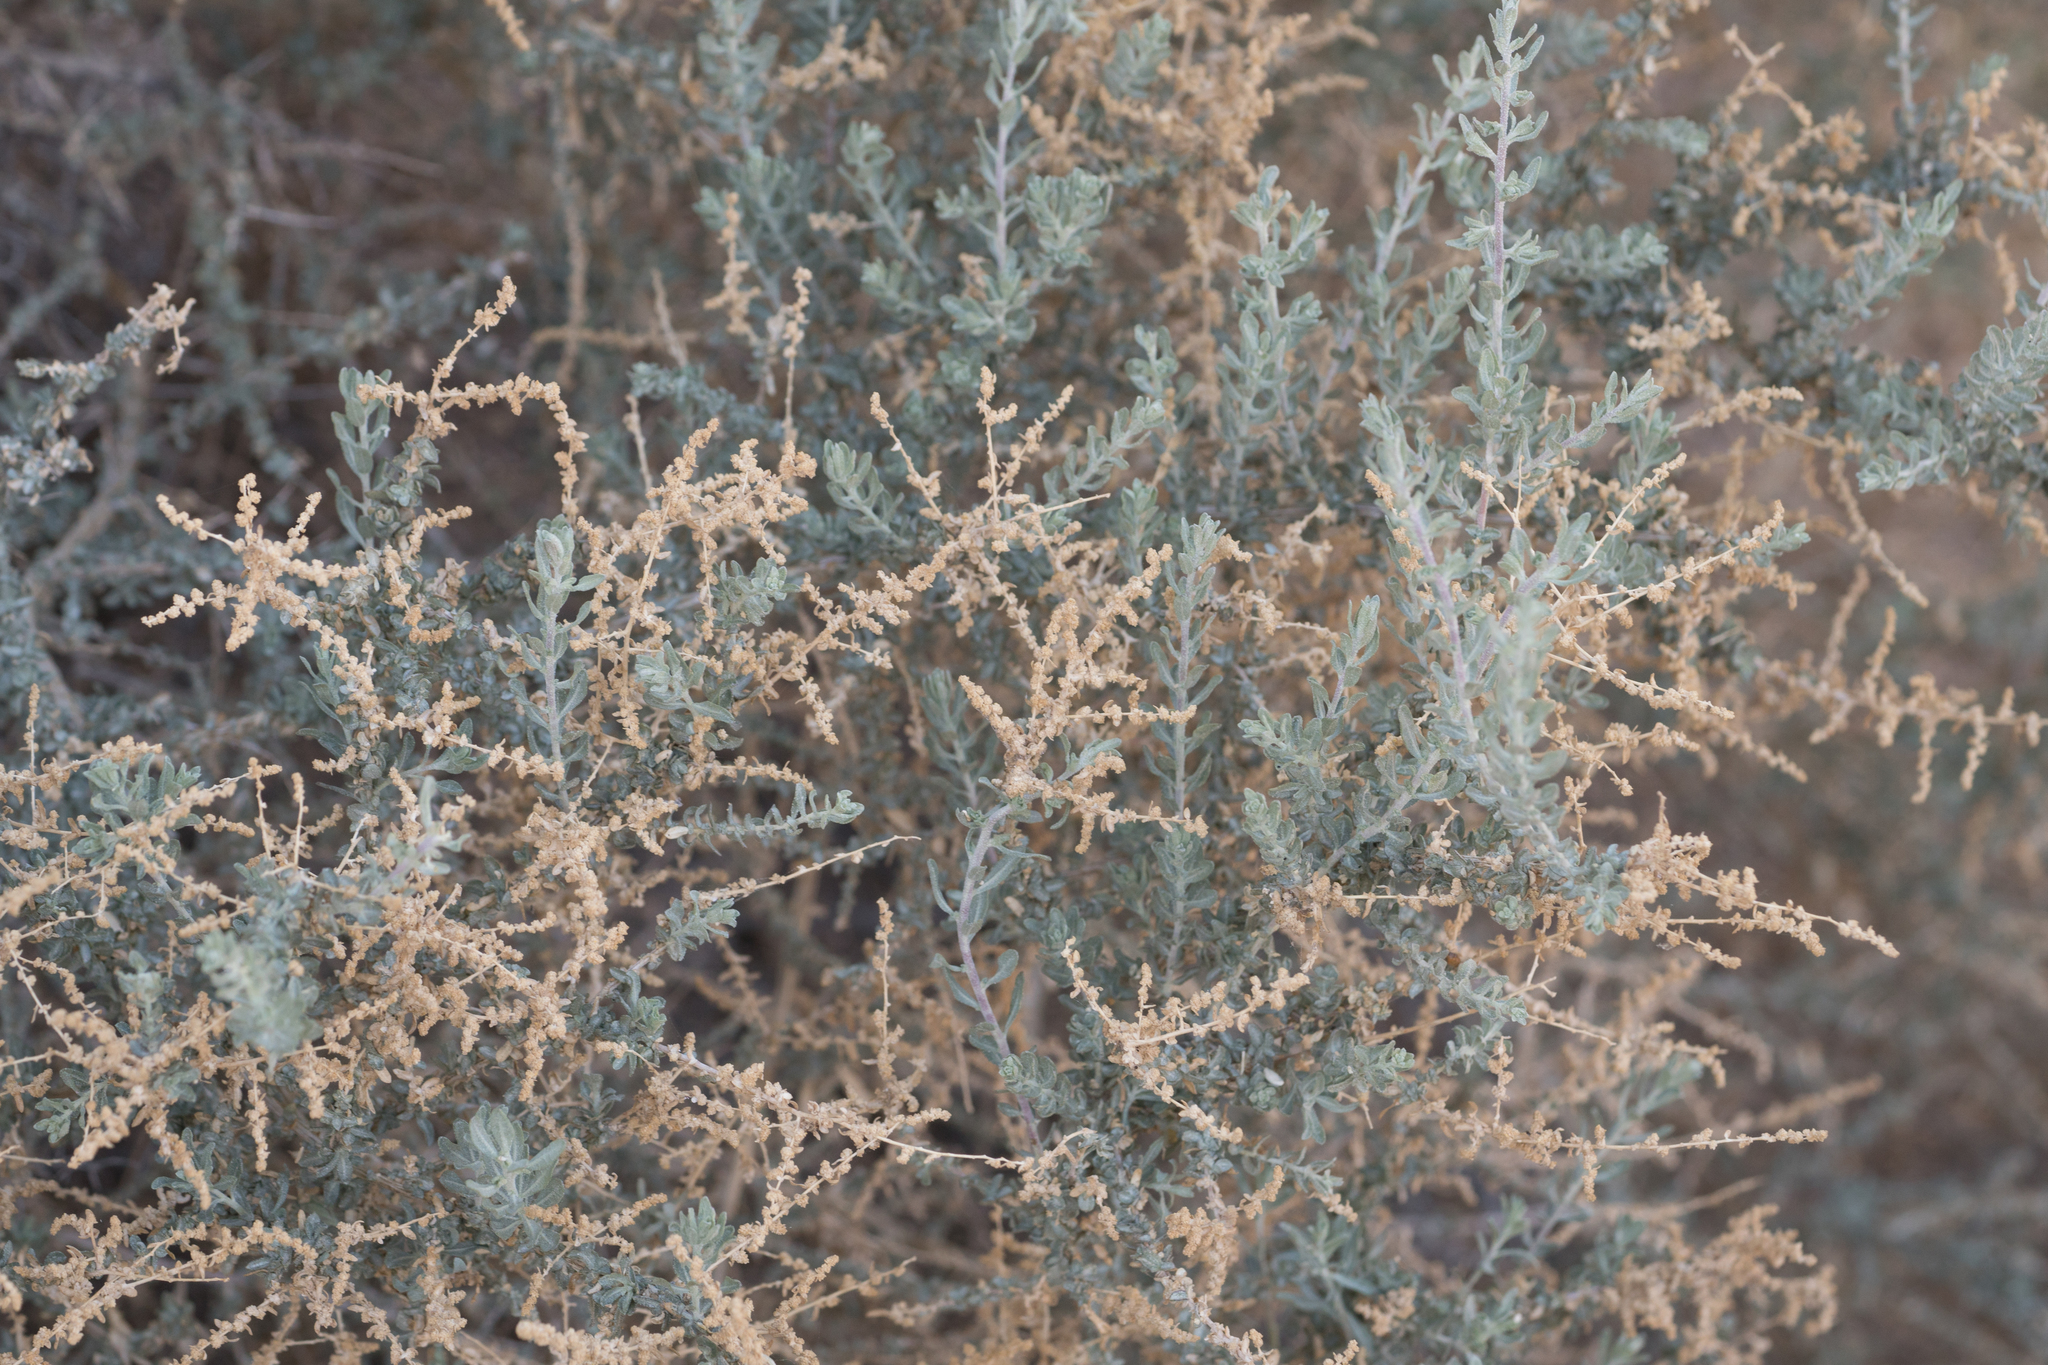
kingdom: Plantae
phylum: Tracheophyta
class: Magnoliopsida
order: Caryophyllales
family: Amaranthaceae
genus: Atriplex
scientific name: Atriplex canescens
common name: Four-wing saltbush
